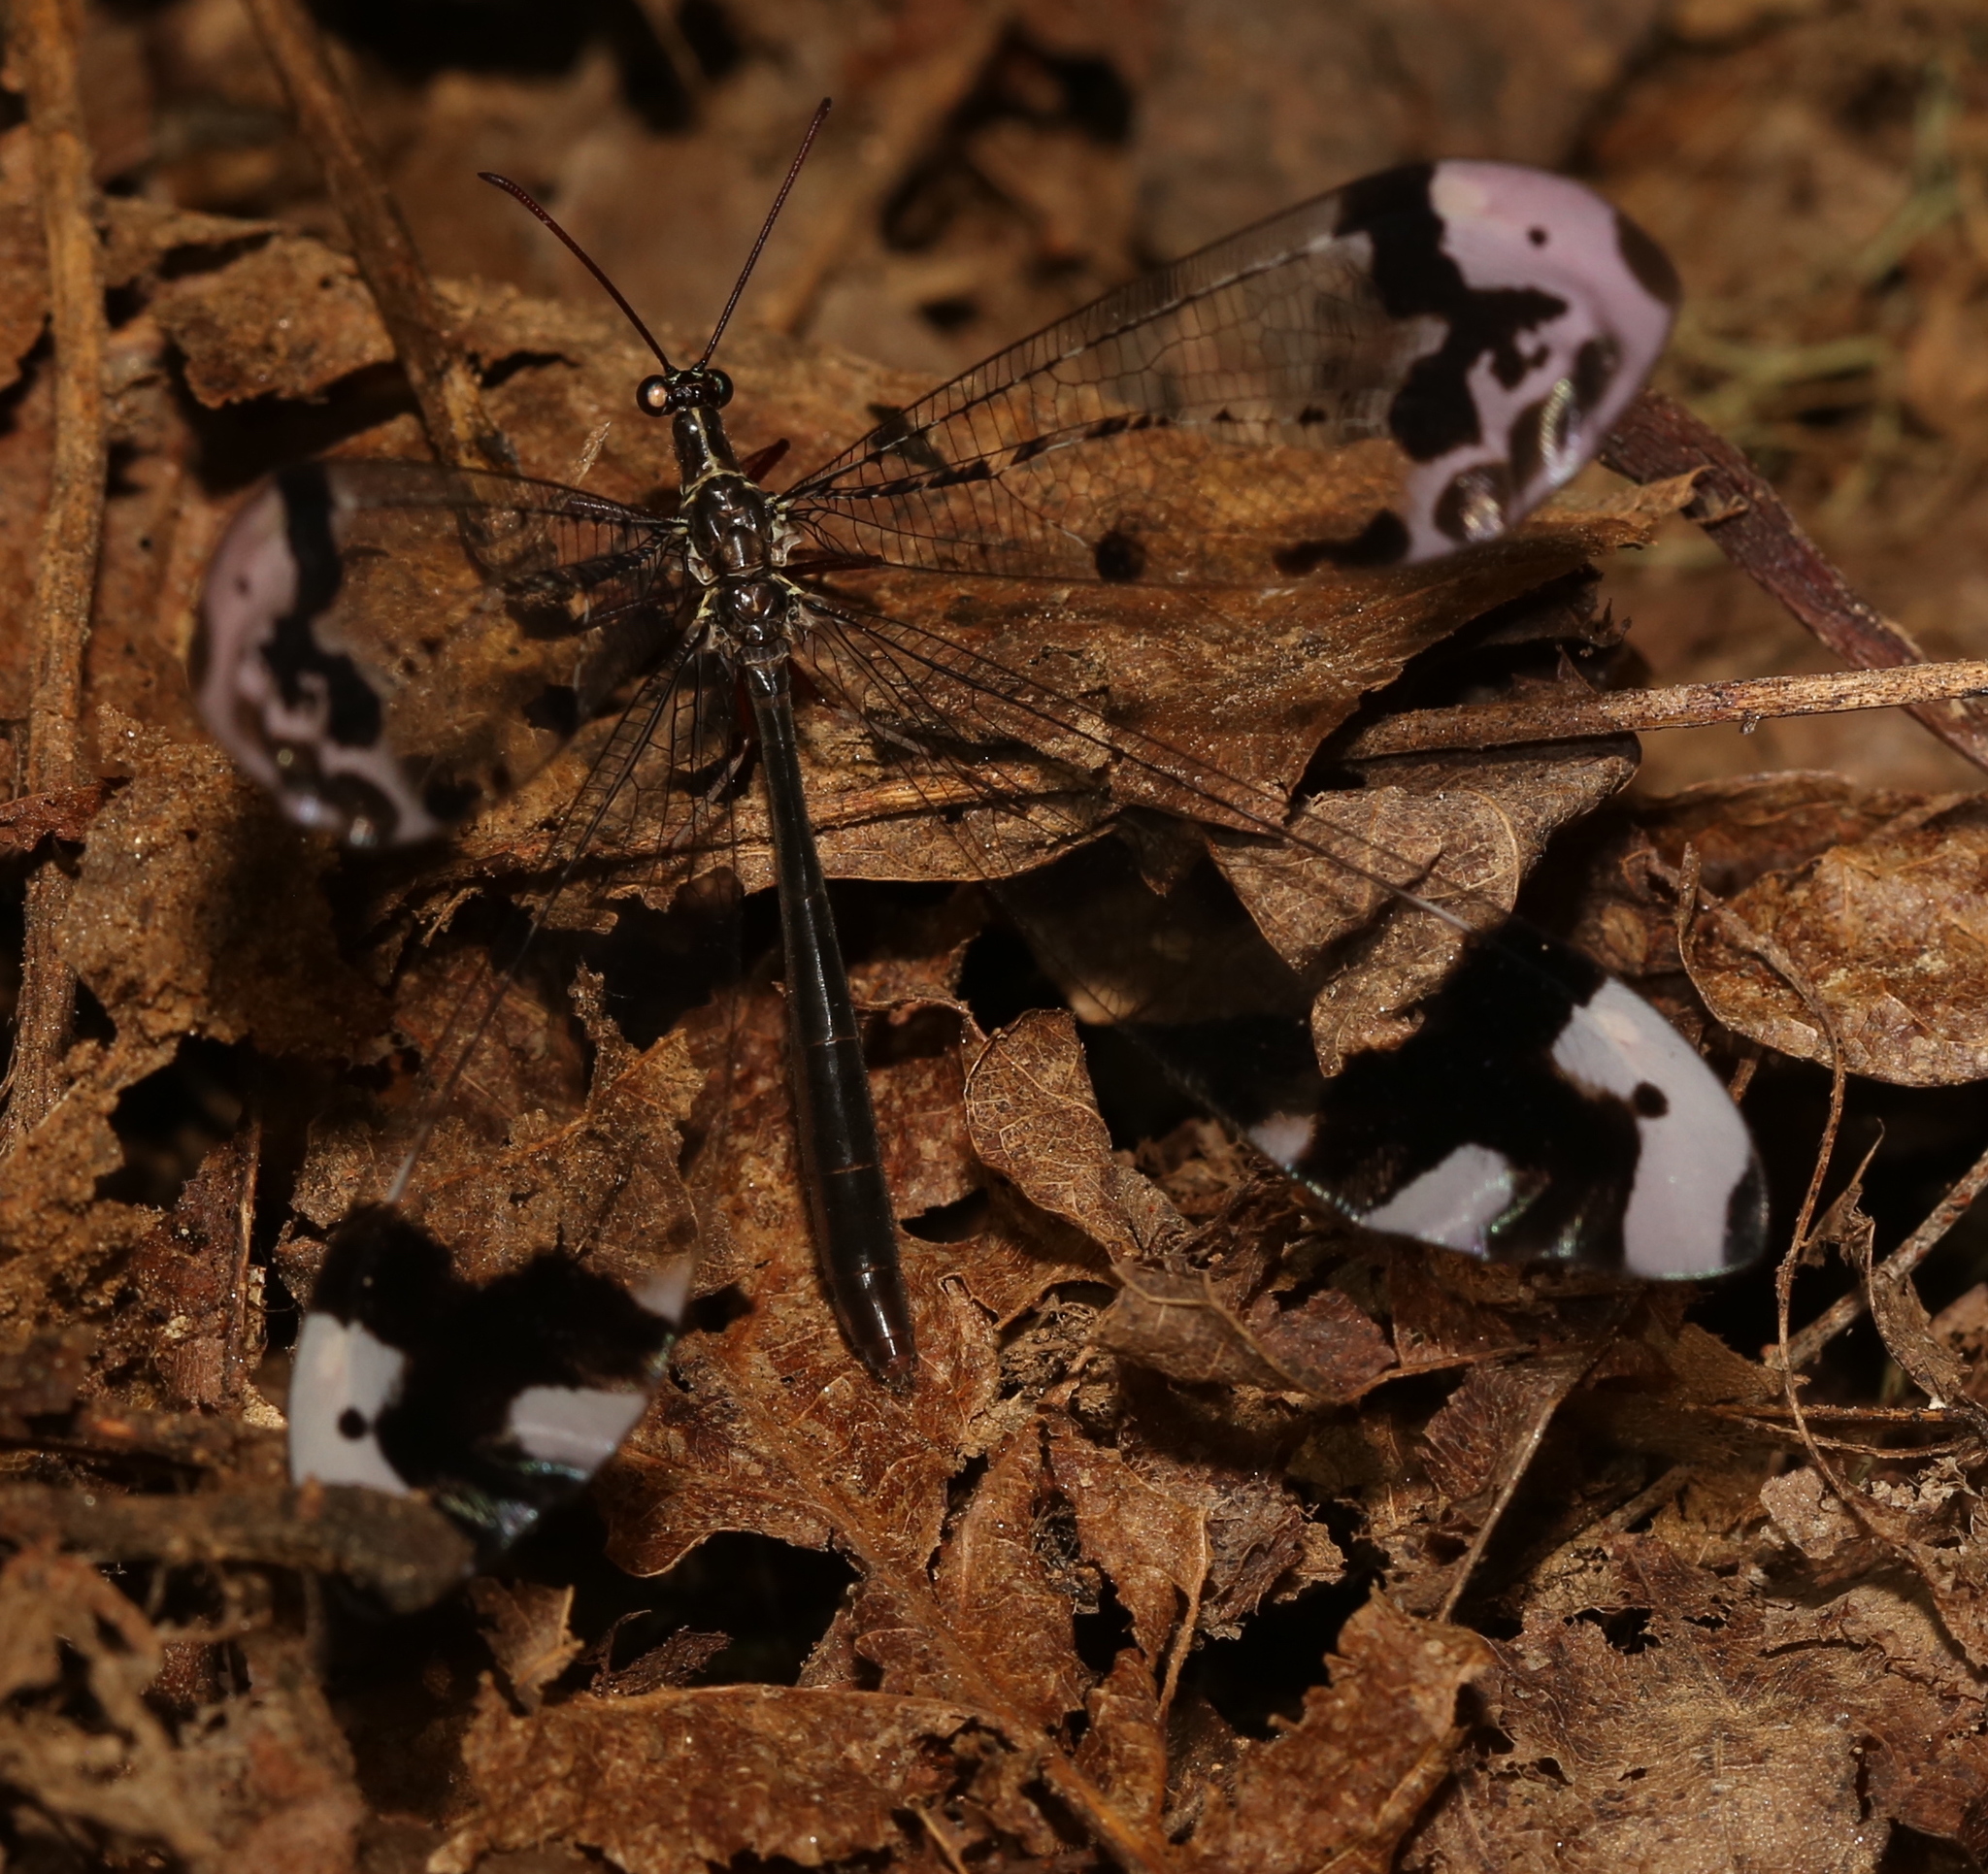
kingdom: Animalia
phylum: Arthropoda
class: Insecta
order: Neuroptera
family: Myrmeleontidae
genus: Glenurus
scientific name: Glenurus gratus
